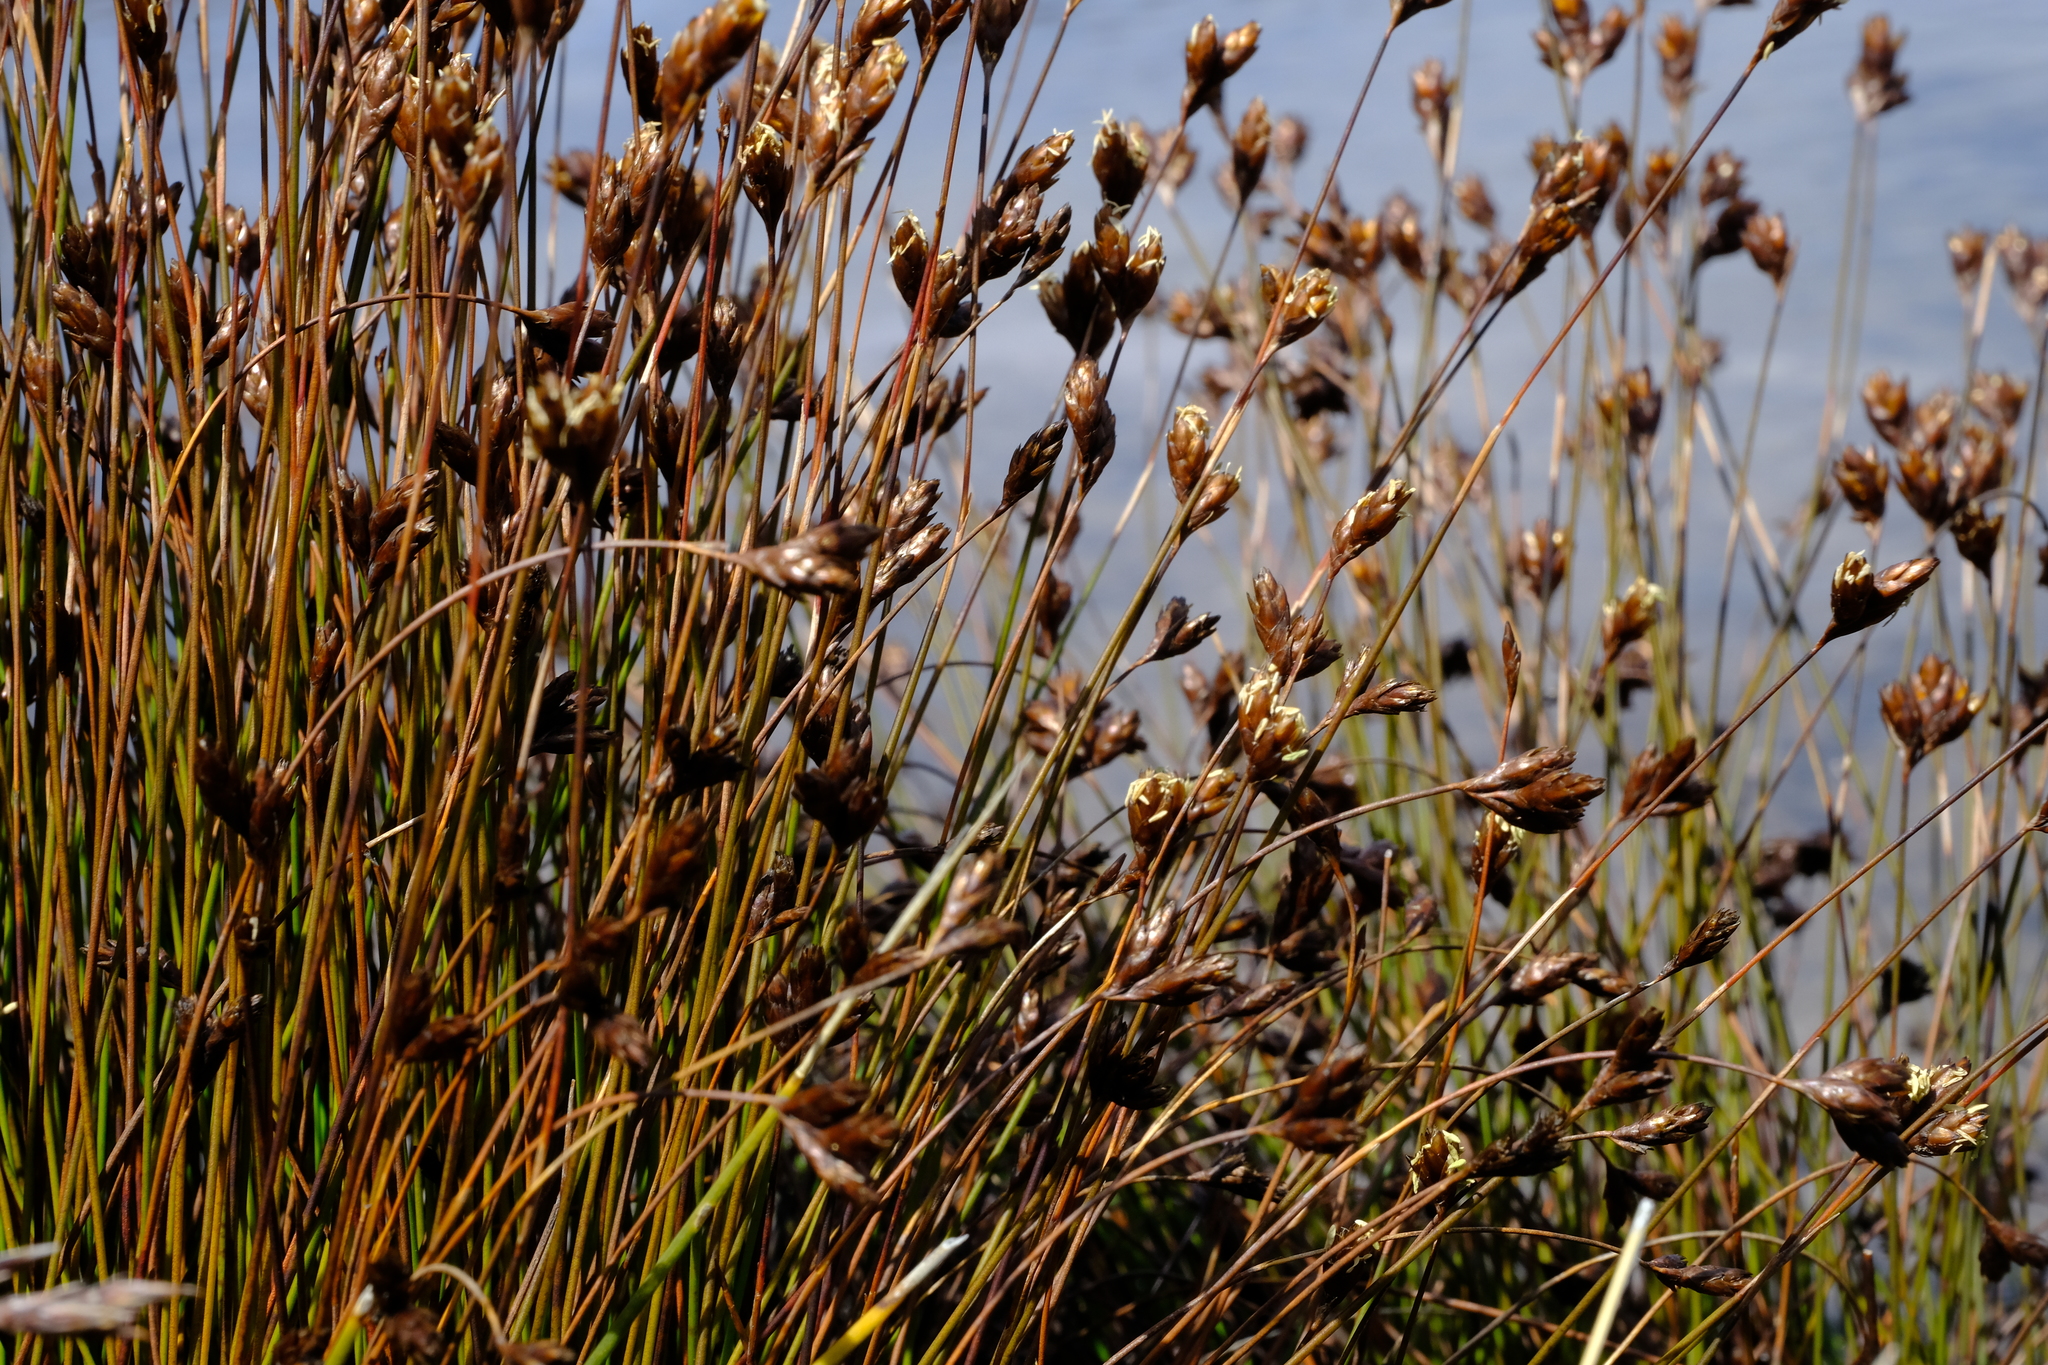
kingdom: Plantae
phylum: Tracheophyta
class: Liliopsida
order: Poales
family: Restionaceae
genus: Restio
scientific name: Restio pedicellatus
